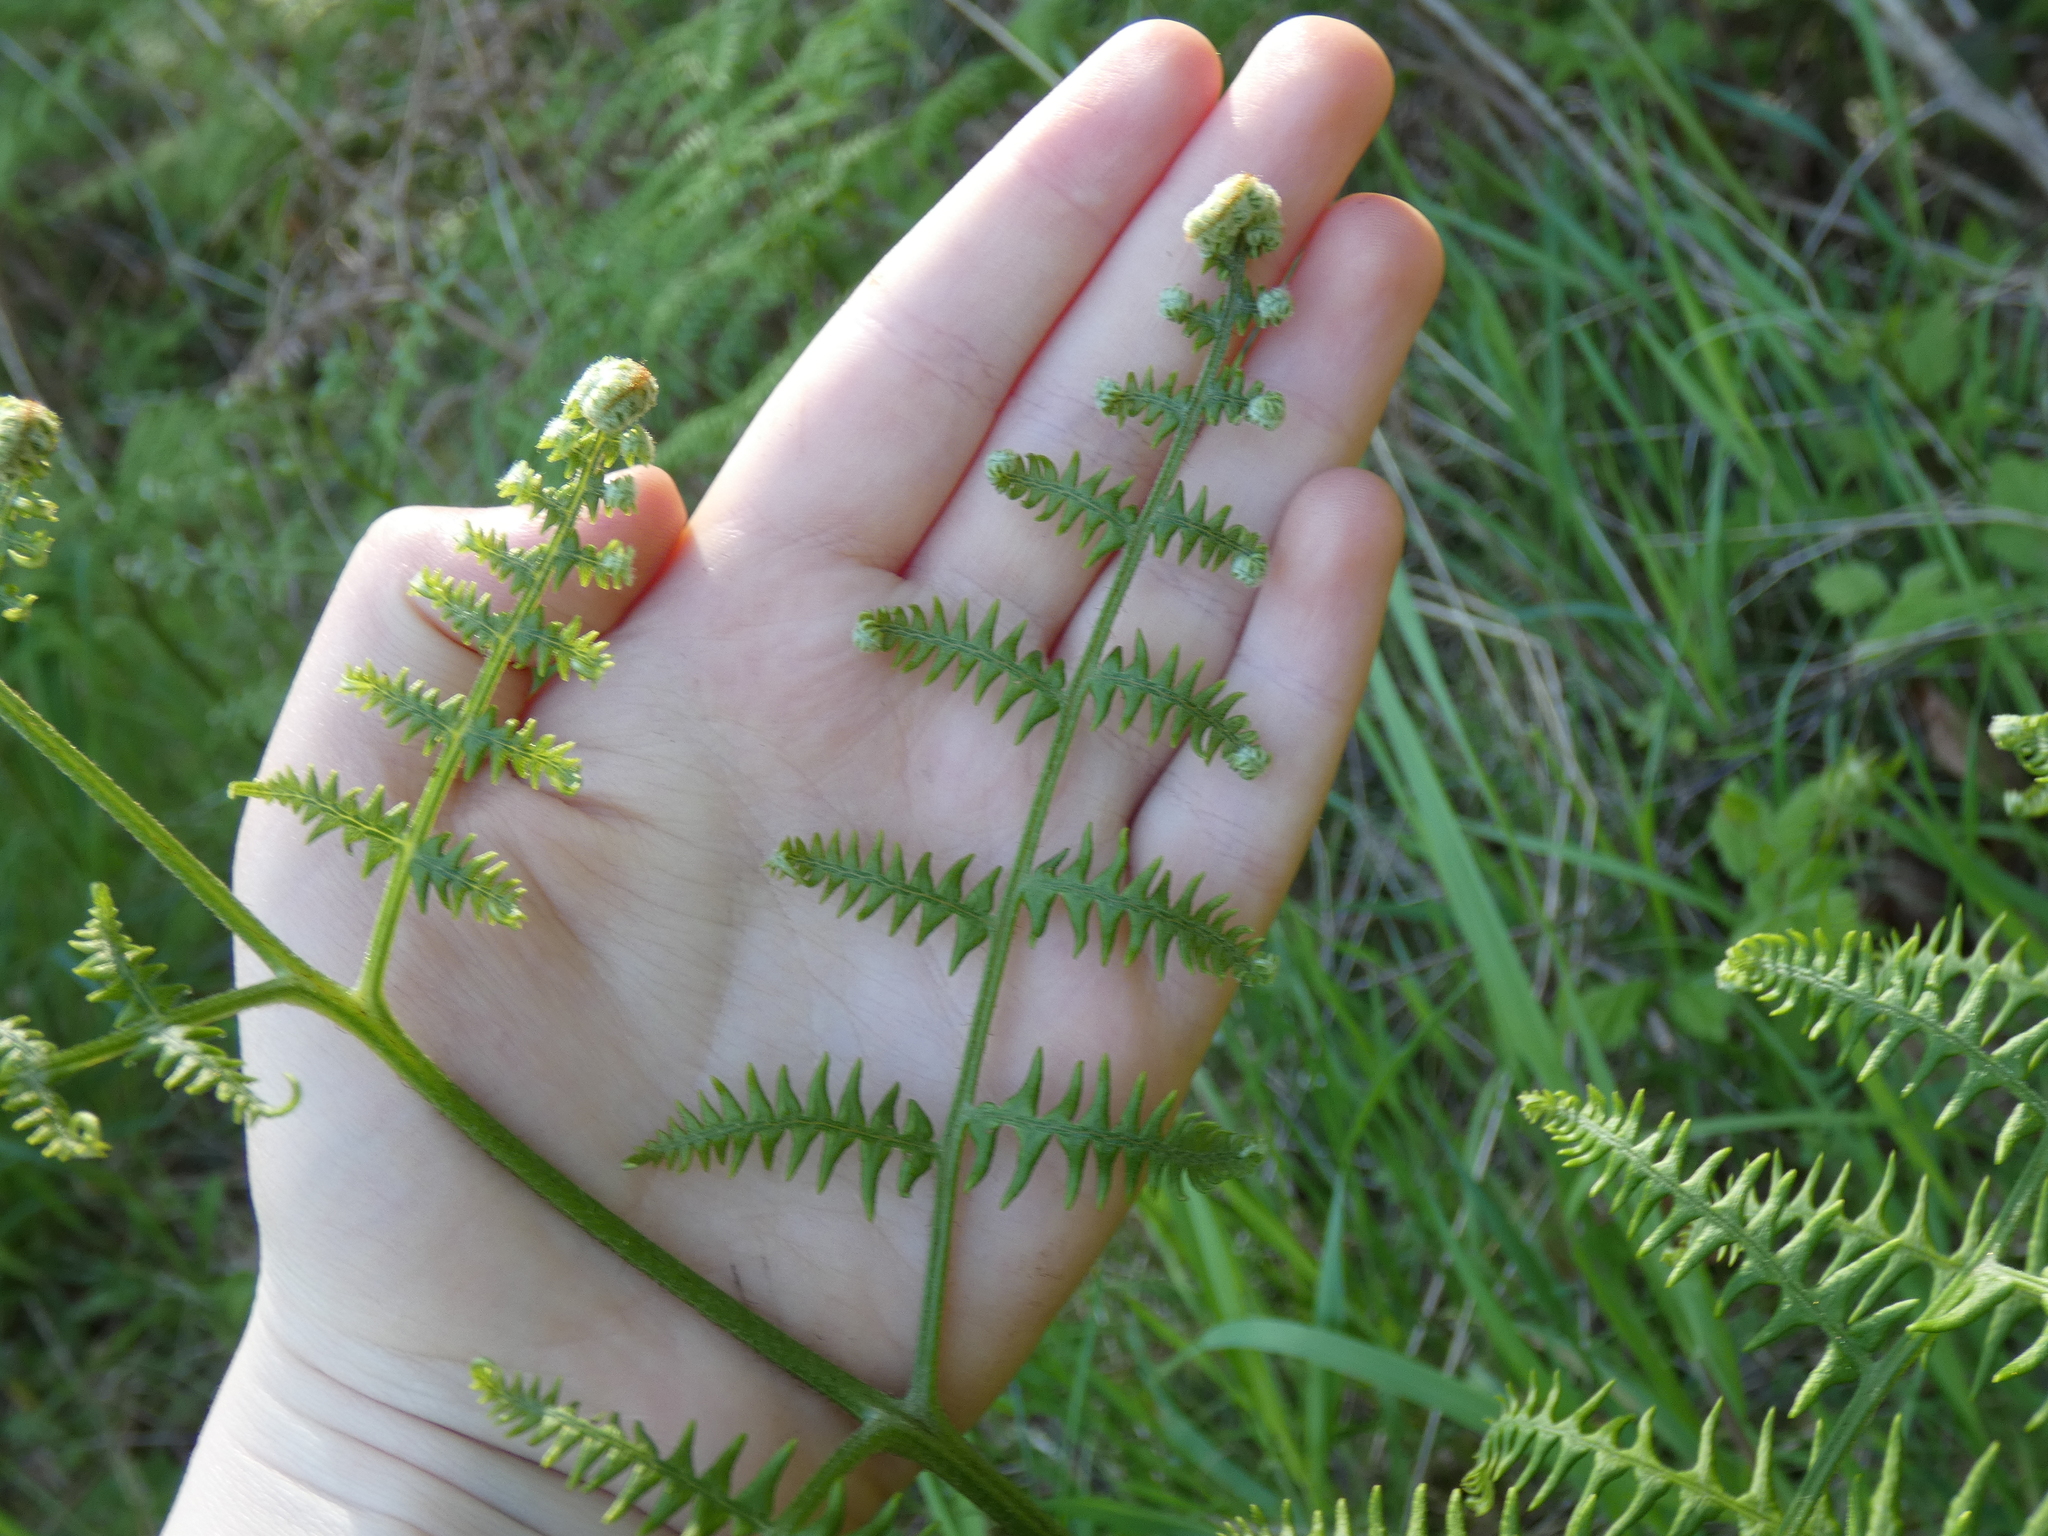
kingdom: Plantae
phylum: Tracheophyta
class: Polypodiopsida
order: Polypodiales
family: Dennstaedtiaceae
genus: Pteridium
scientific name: Pteridium aquilinum
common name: Bracken
